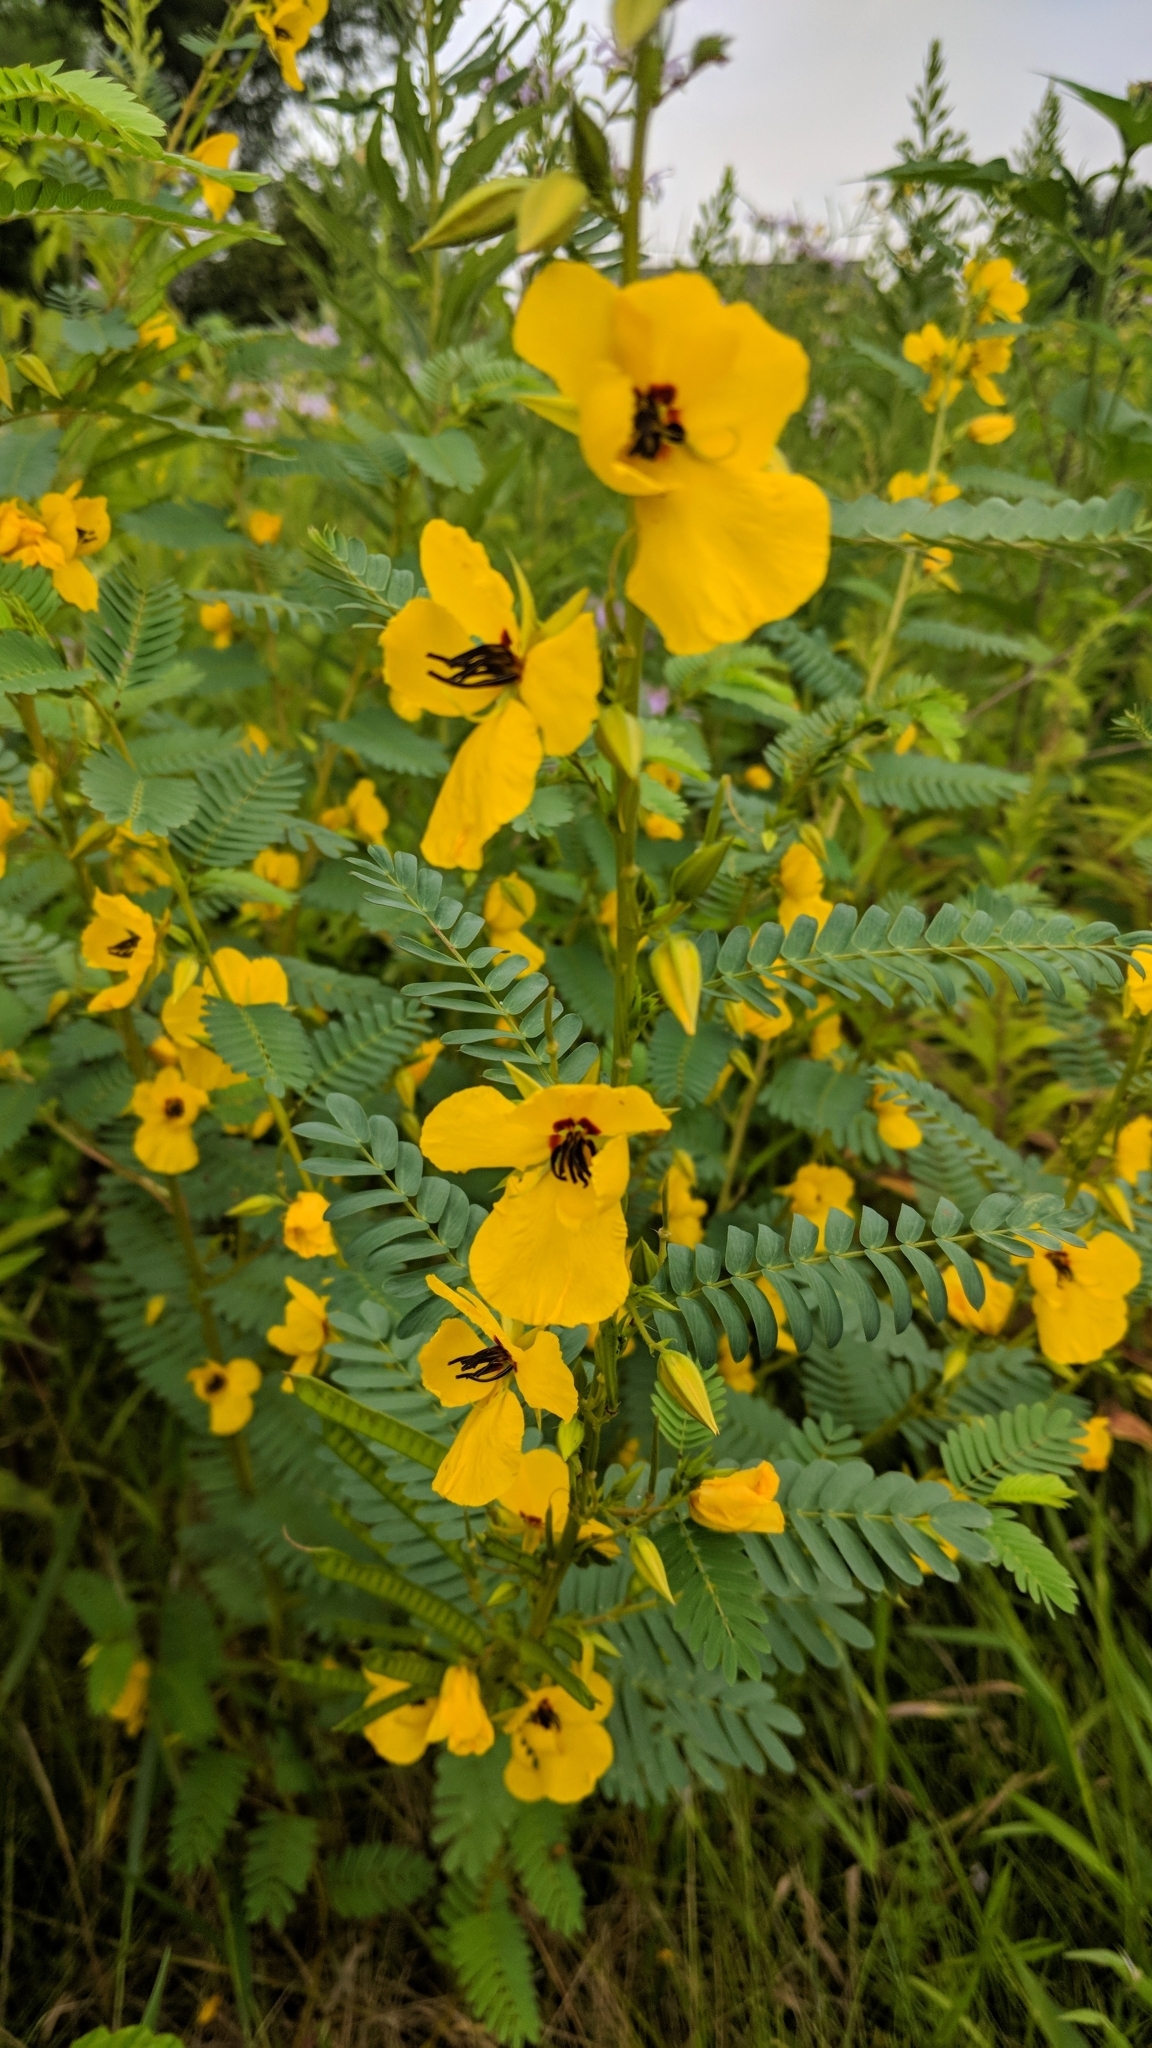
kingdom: Plantae
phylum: Tracheophyta
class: Magnoliopsida
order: Fabales
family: Fabaceae
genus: Chamaecrista
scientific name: Chamaecrista fasciculata
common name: Golden cassia
